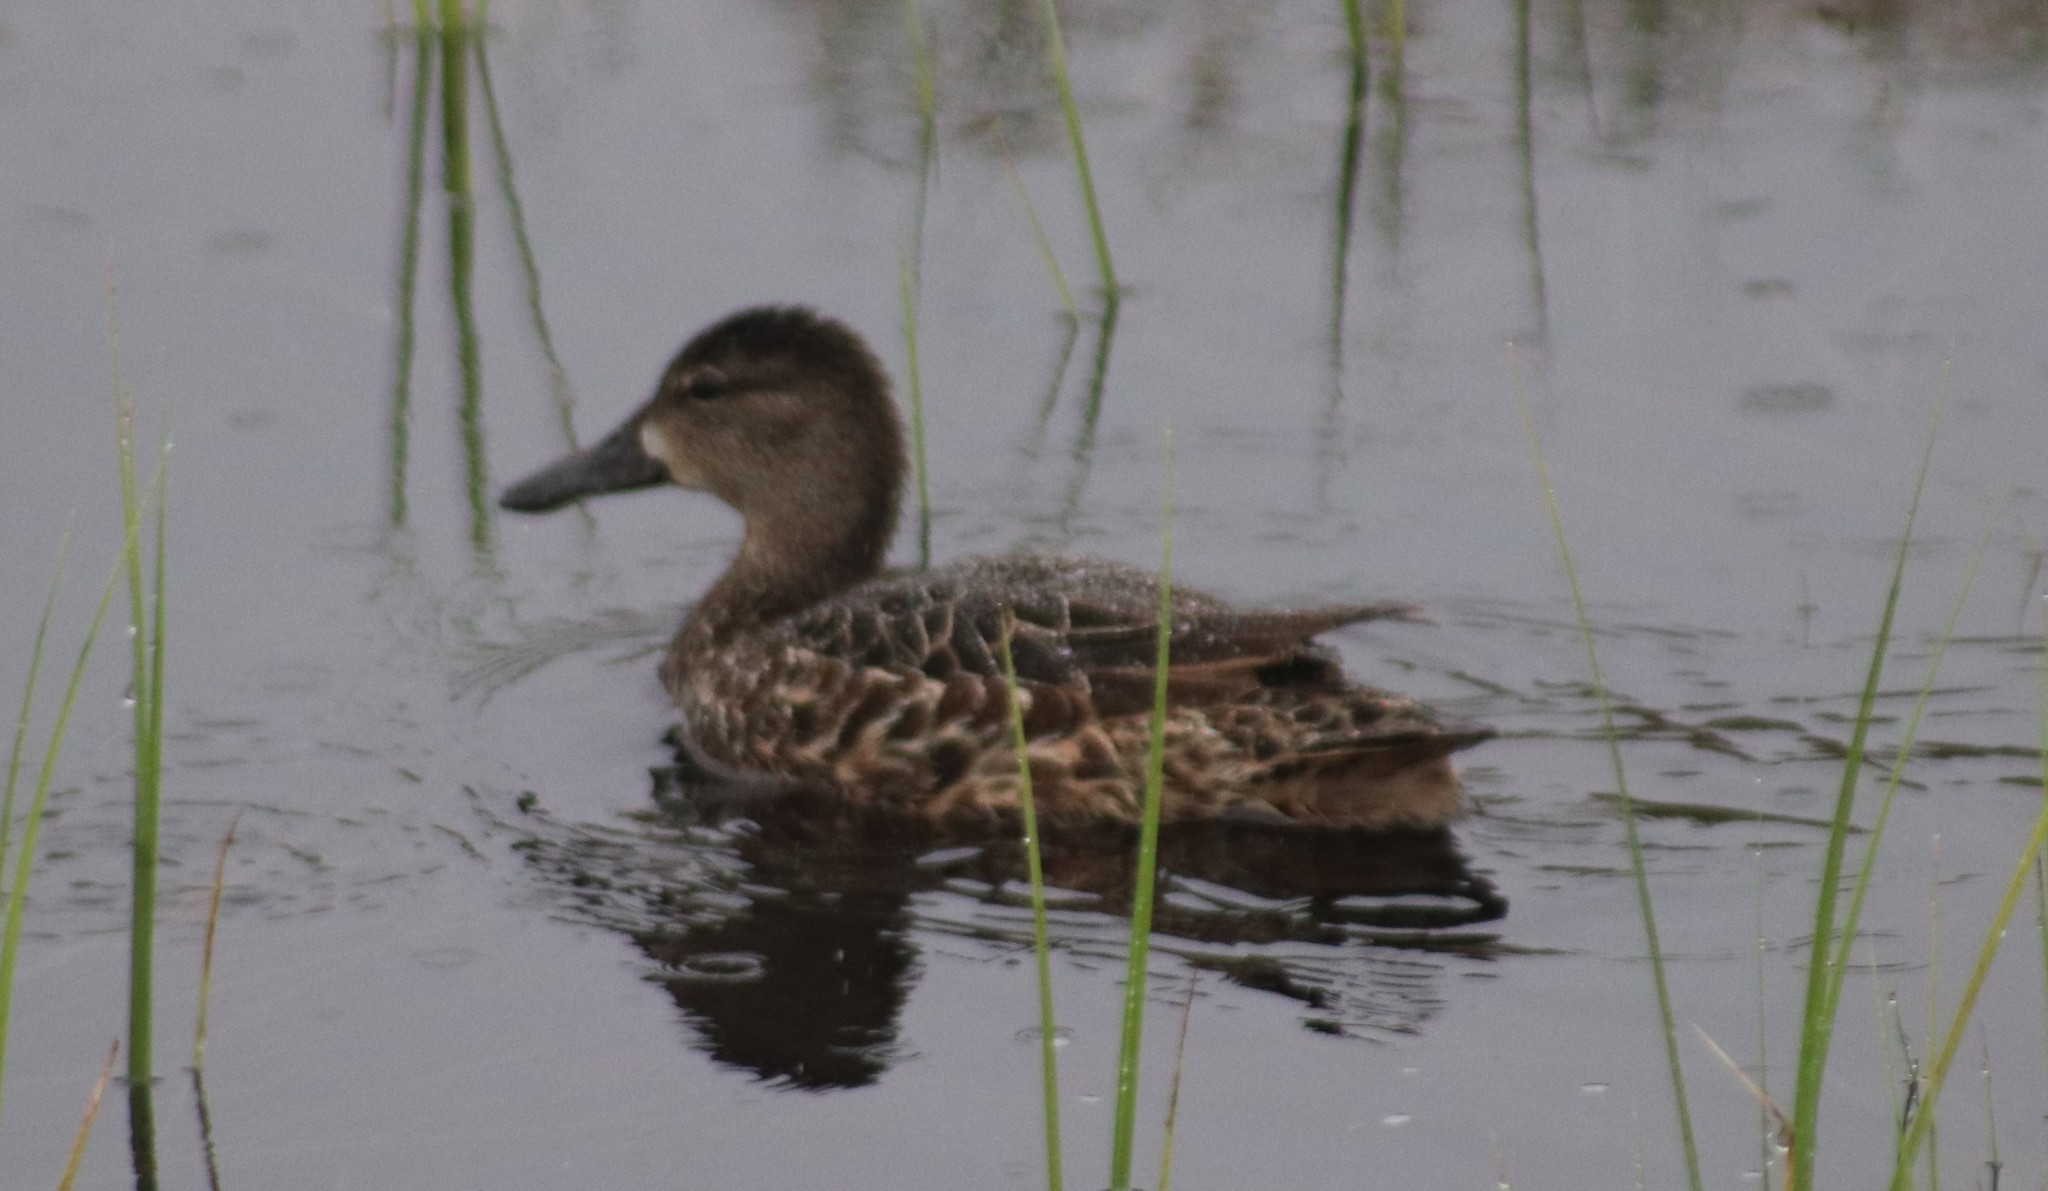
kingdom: Animalia
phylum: Chordata
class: Aves
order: Anseriformes
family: Anatidae
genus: Spatula
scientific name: Spatula discors
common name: Blue-winged teal
